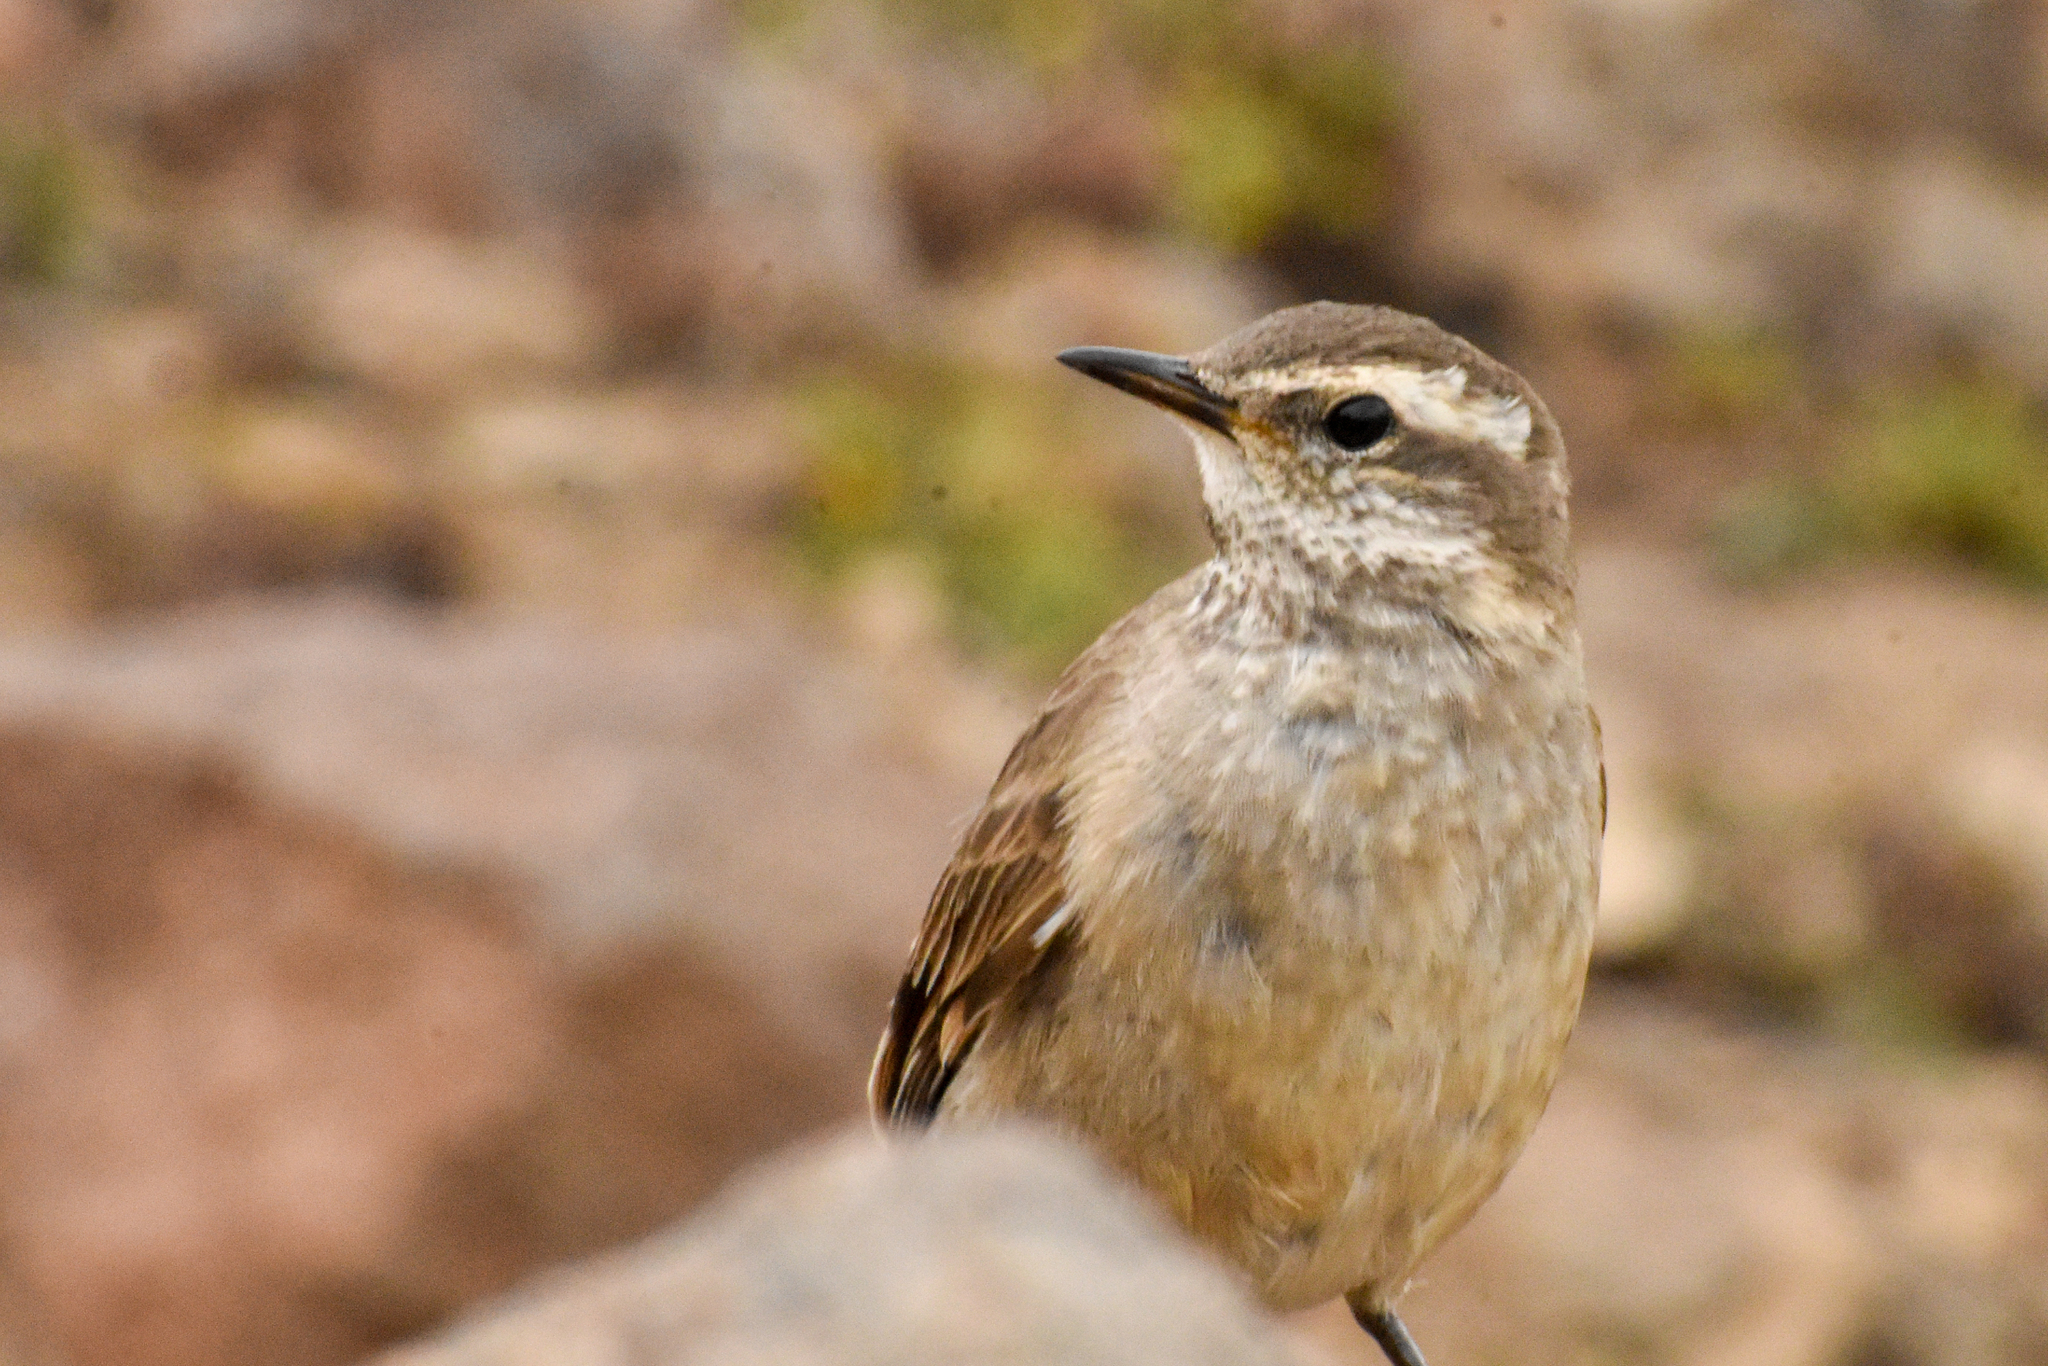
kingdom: Animalia
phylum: Chordata
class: Aves
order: Passeriformes
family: Furnariidae
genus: Cinclodes
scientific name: Cinclodes fuscus
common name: Buff-winged cinclodes
